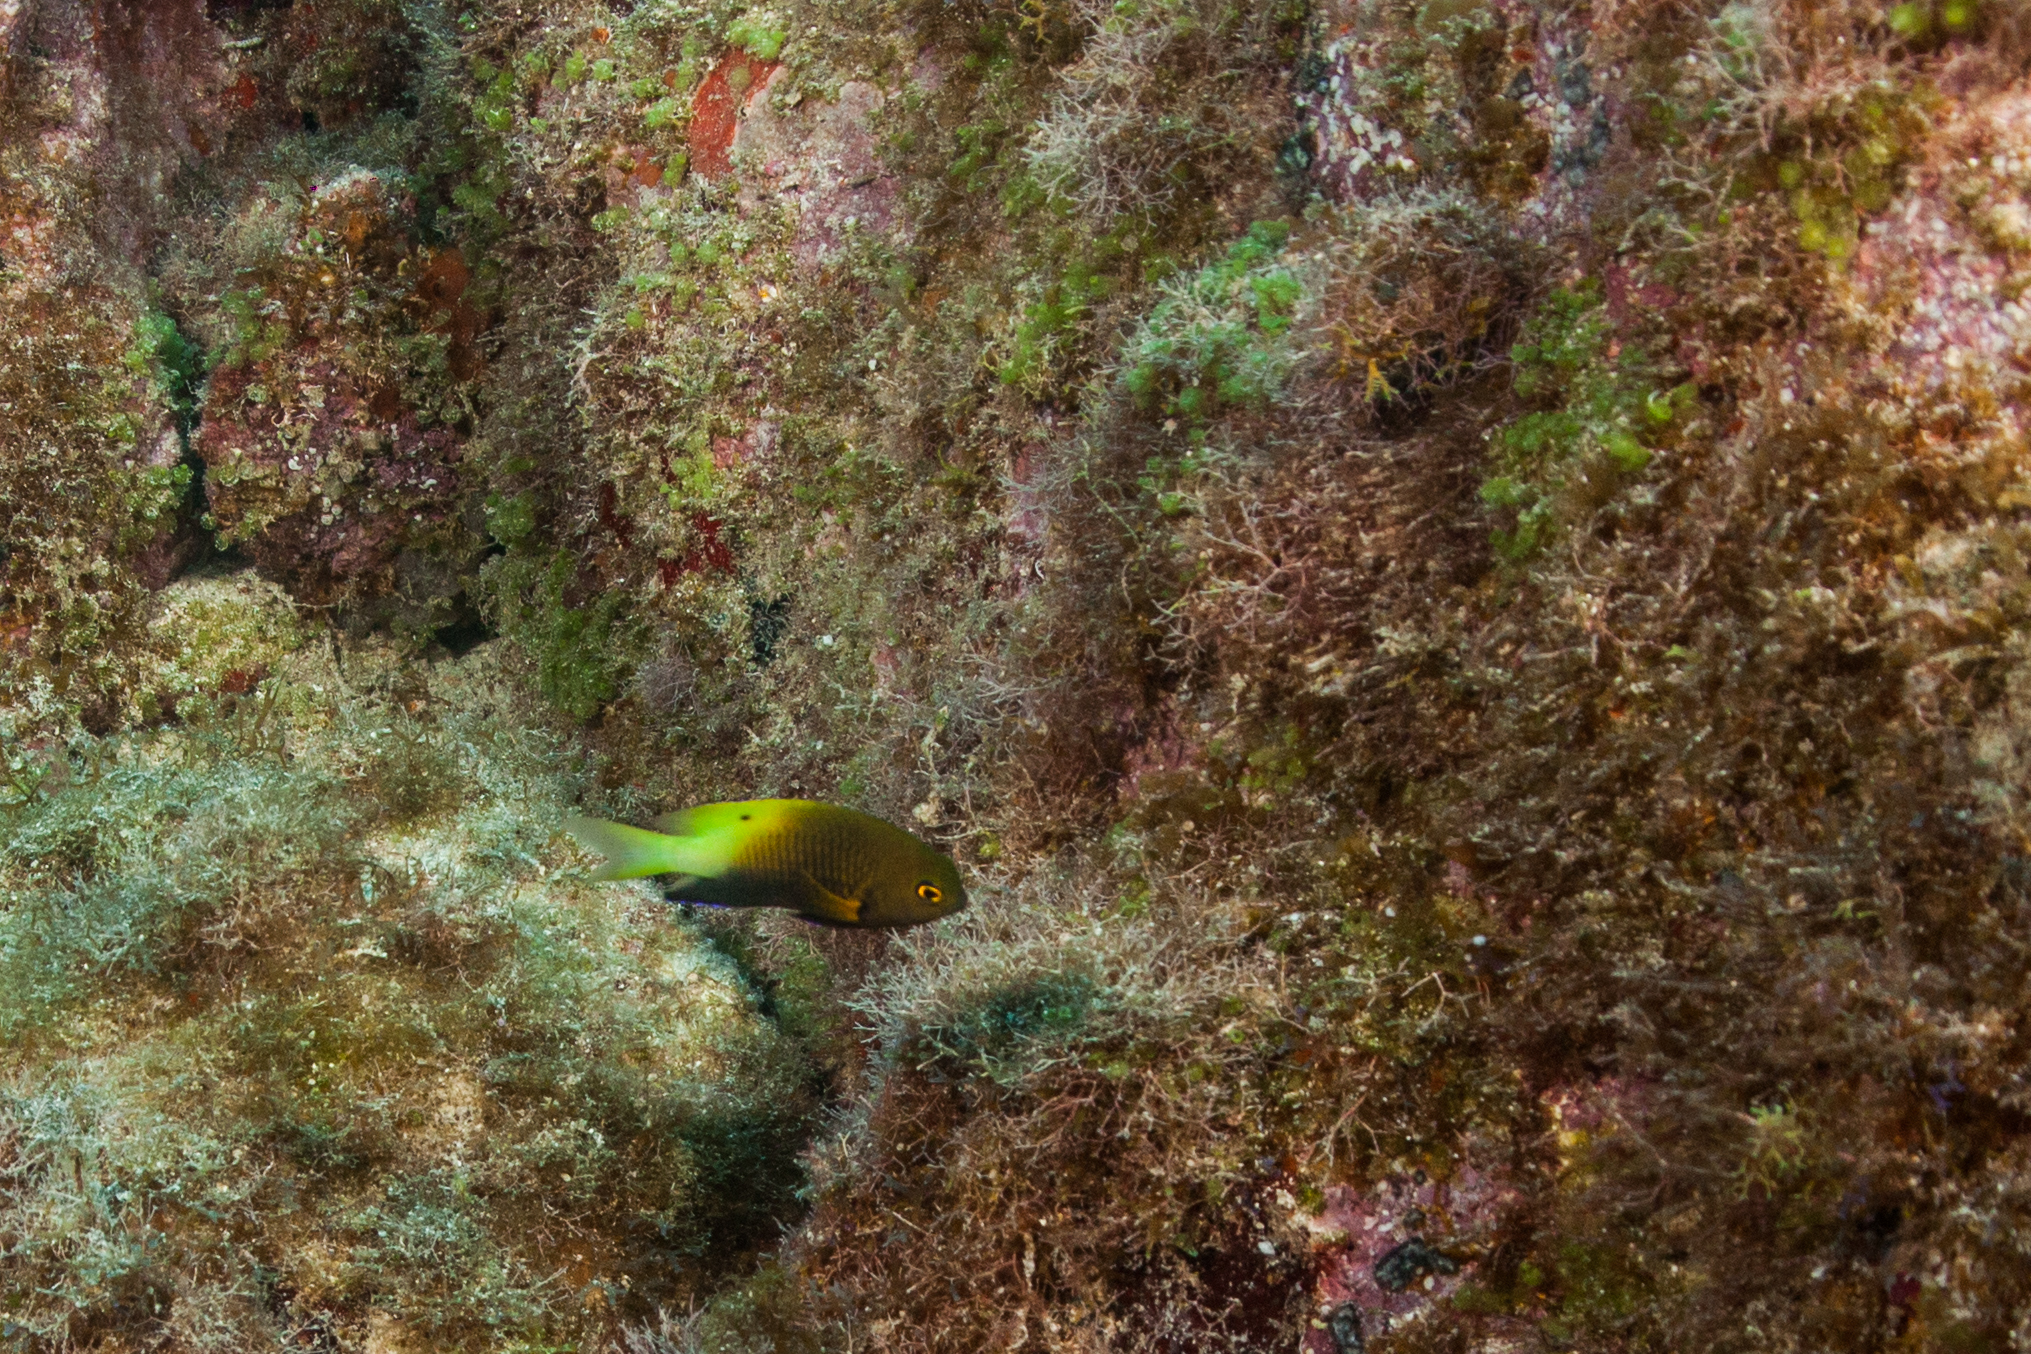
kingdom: Animalia
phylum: Chordata
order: Perciformes
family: Pomacentridae
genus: Stegastes
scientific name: Stegastes pictus
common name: Yellowtip damselfish
